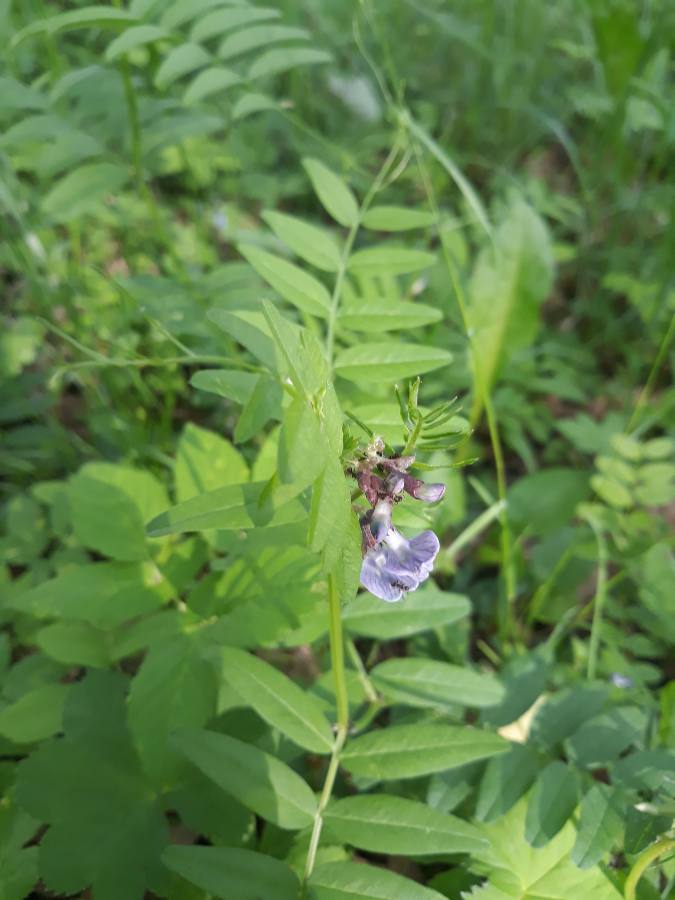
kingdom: Plantae
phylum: Tracheophyta
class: Magnoliopsida
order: Fabales
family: Fabaceae
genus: Vicia
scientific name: Vicia sepium
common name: Bush vetch
